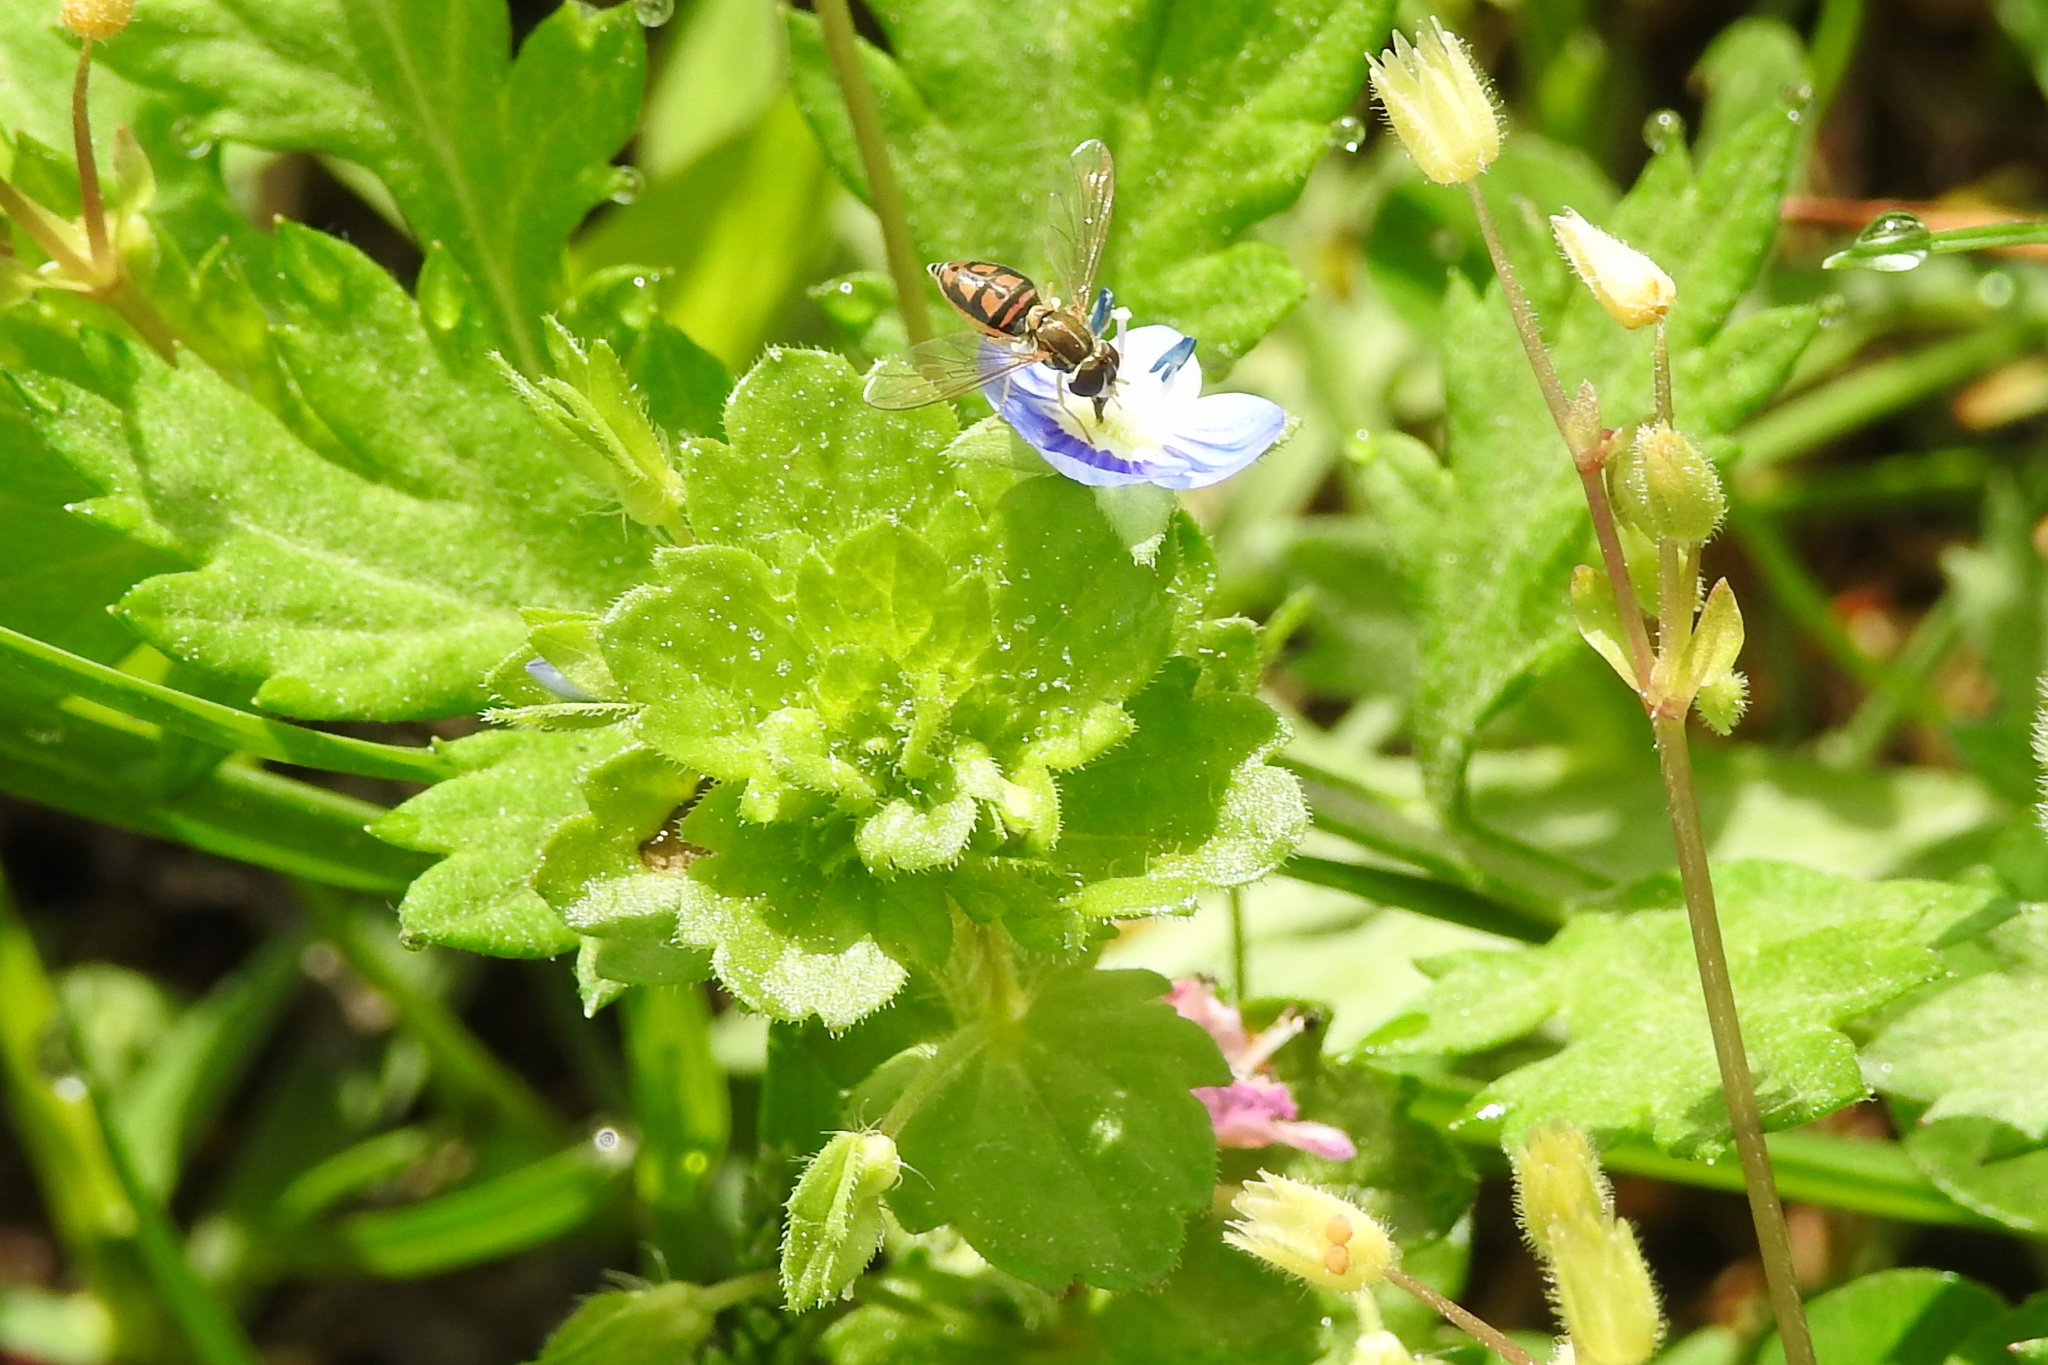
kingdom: Plantae
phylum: Tracheophyta
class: Magnoliopsida
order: Lamiales
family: Plantaginaceae
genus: Veronica
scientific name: Veronica persica
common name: Common field-speedwell
